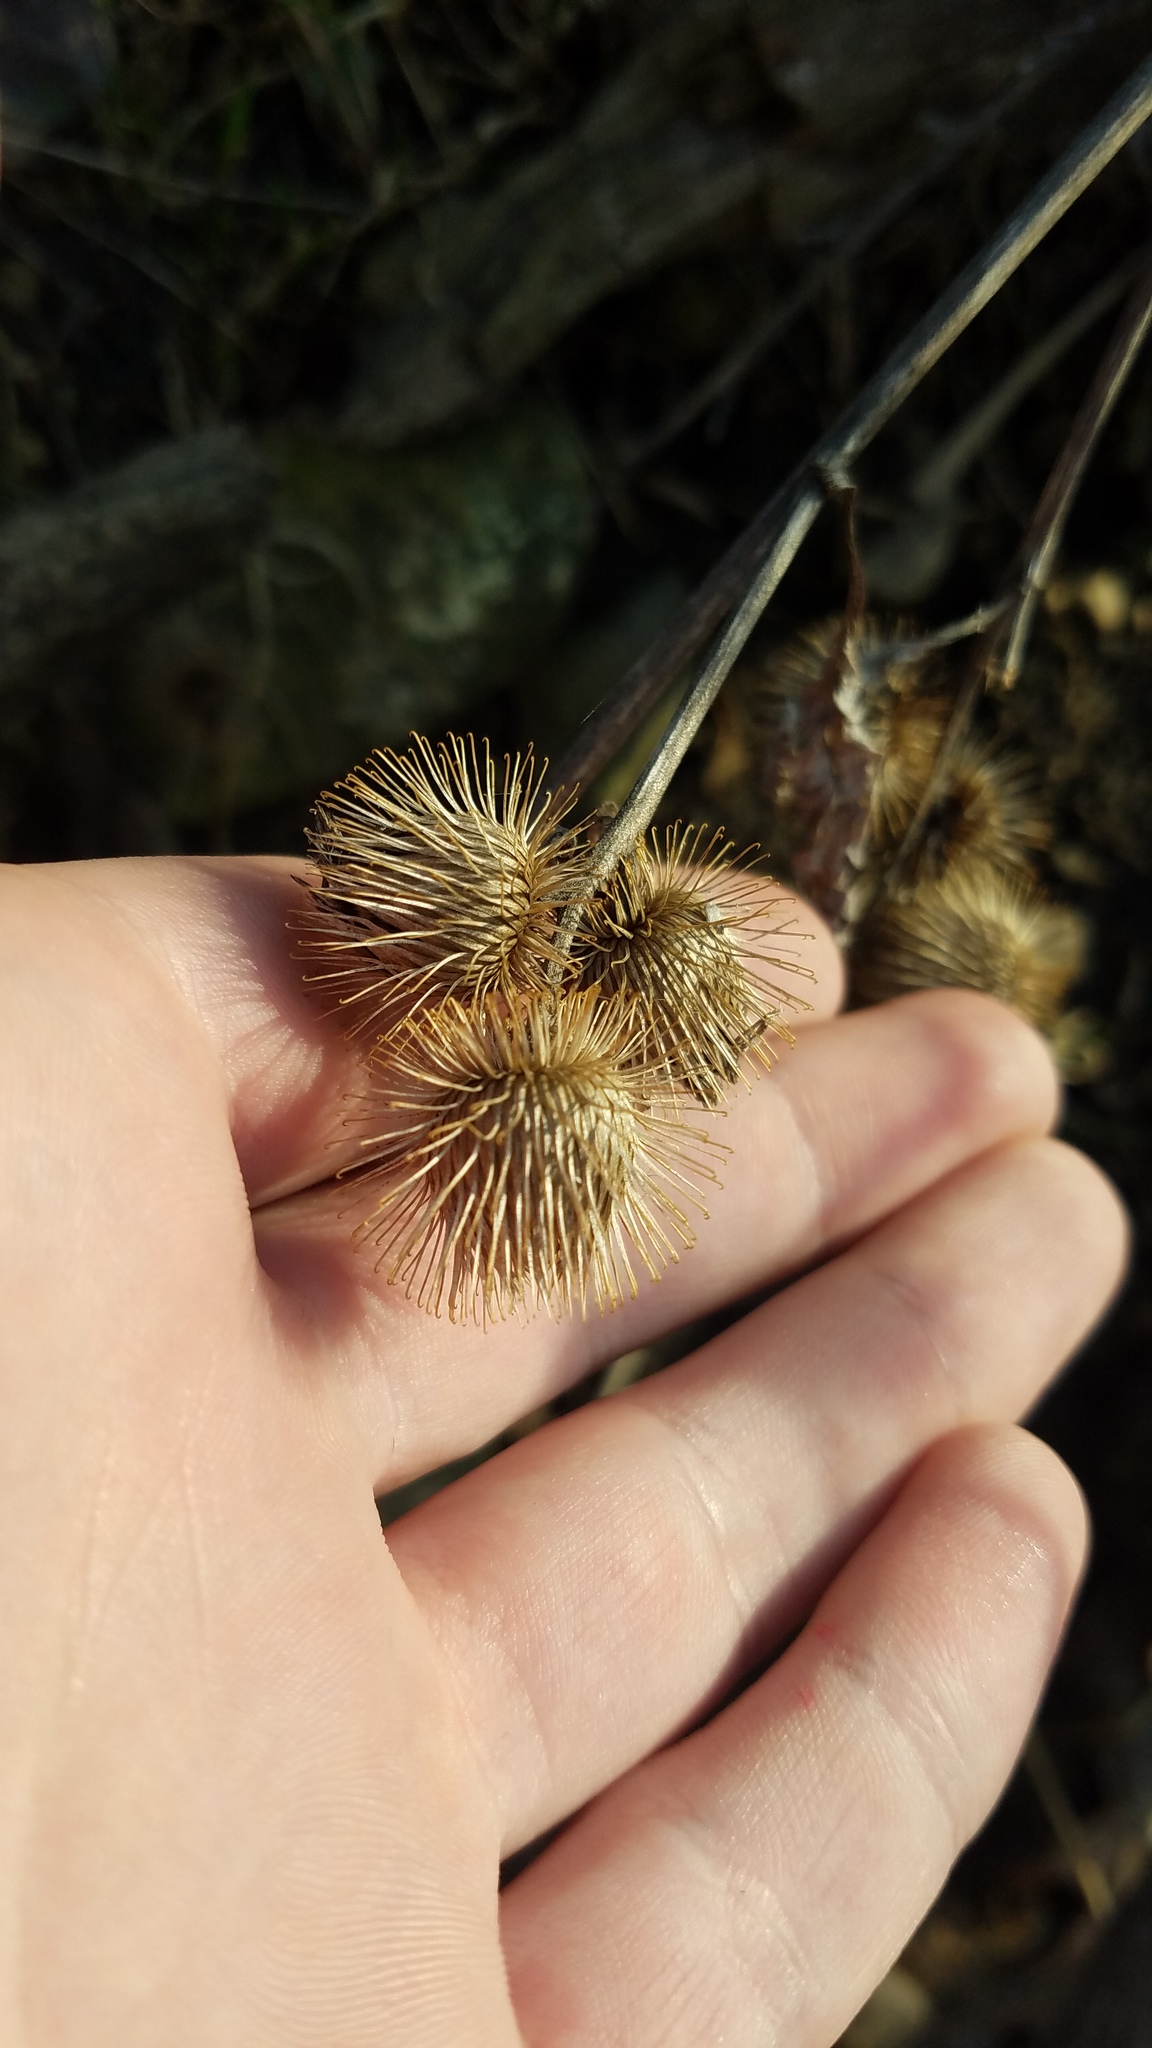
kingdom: Plantae
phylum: Tracheophyta
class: Magnoliopsida
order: Asterales
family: Asteraceae
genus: Arctium
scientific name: Arctium minus
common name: Lesser burdock
